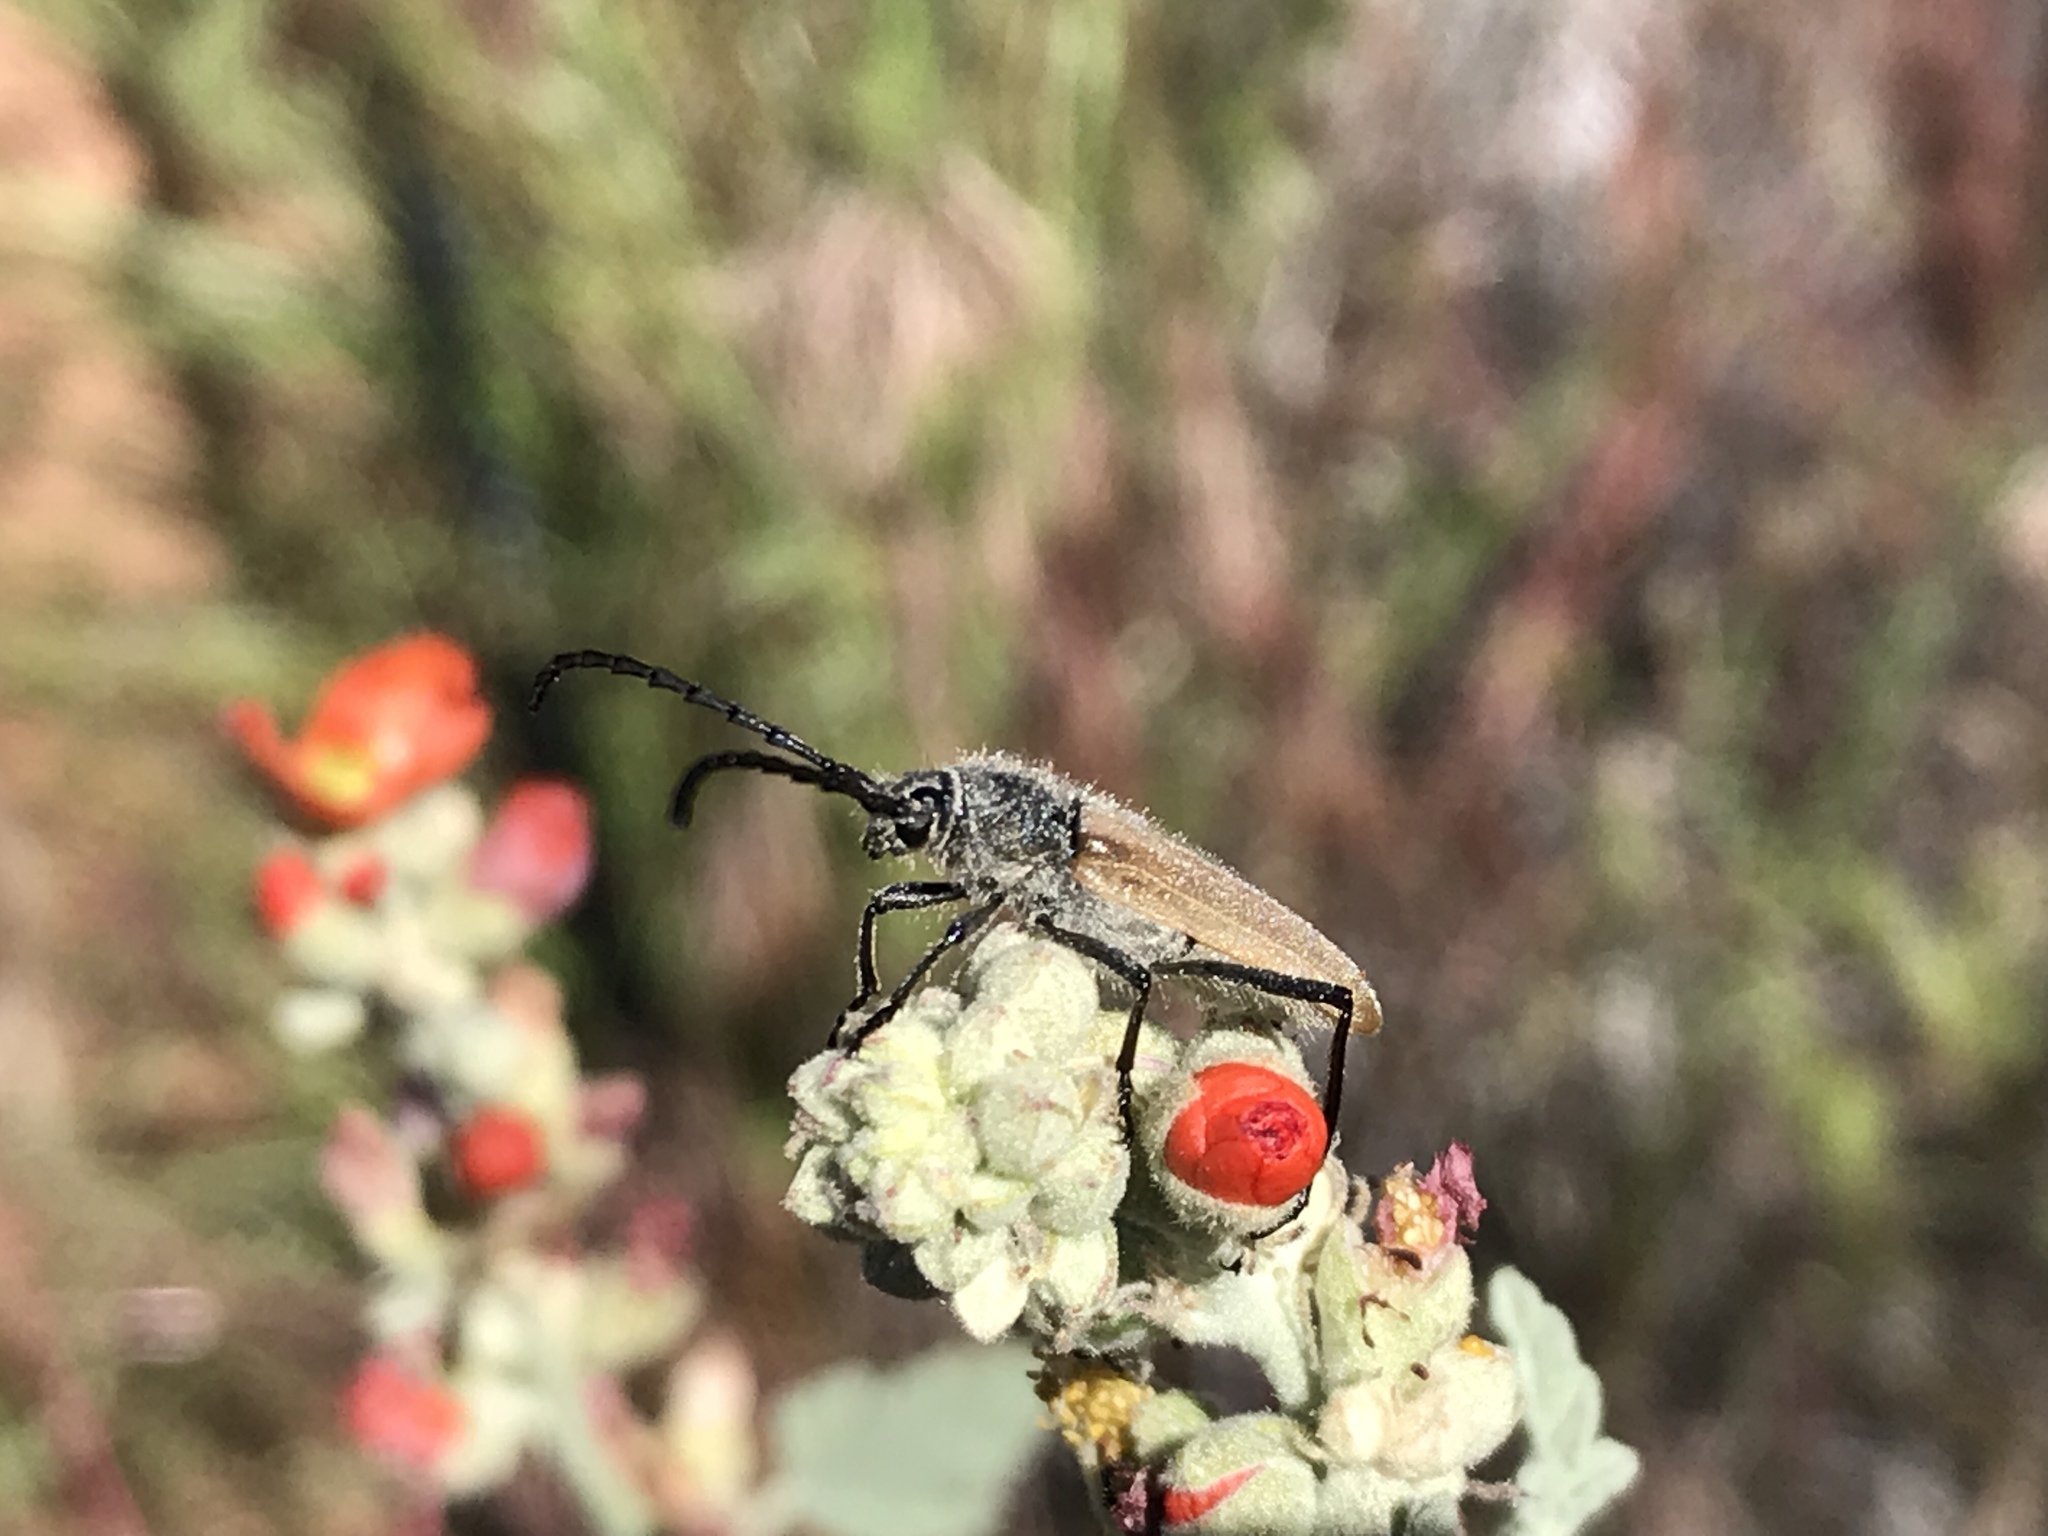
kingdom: Animalia
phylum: Arthropoda
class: Insecta
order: Coleoptera
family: Cerambycidae
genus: Amannus
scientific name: Amannus vittiger
